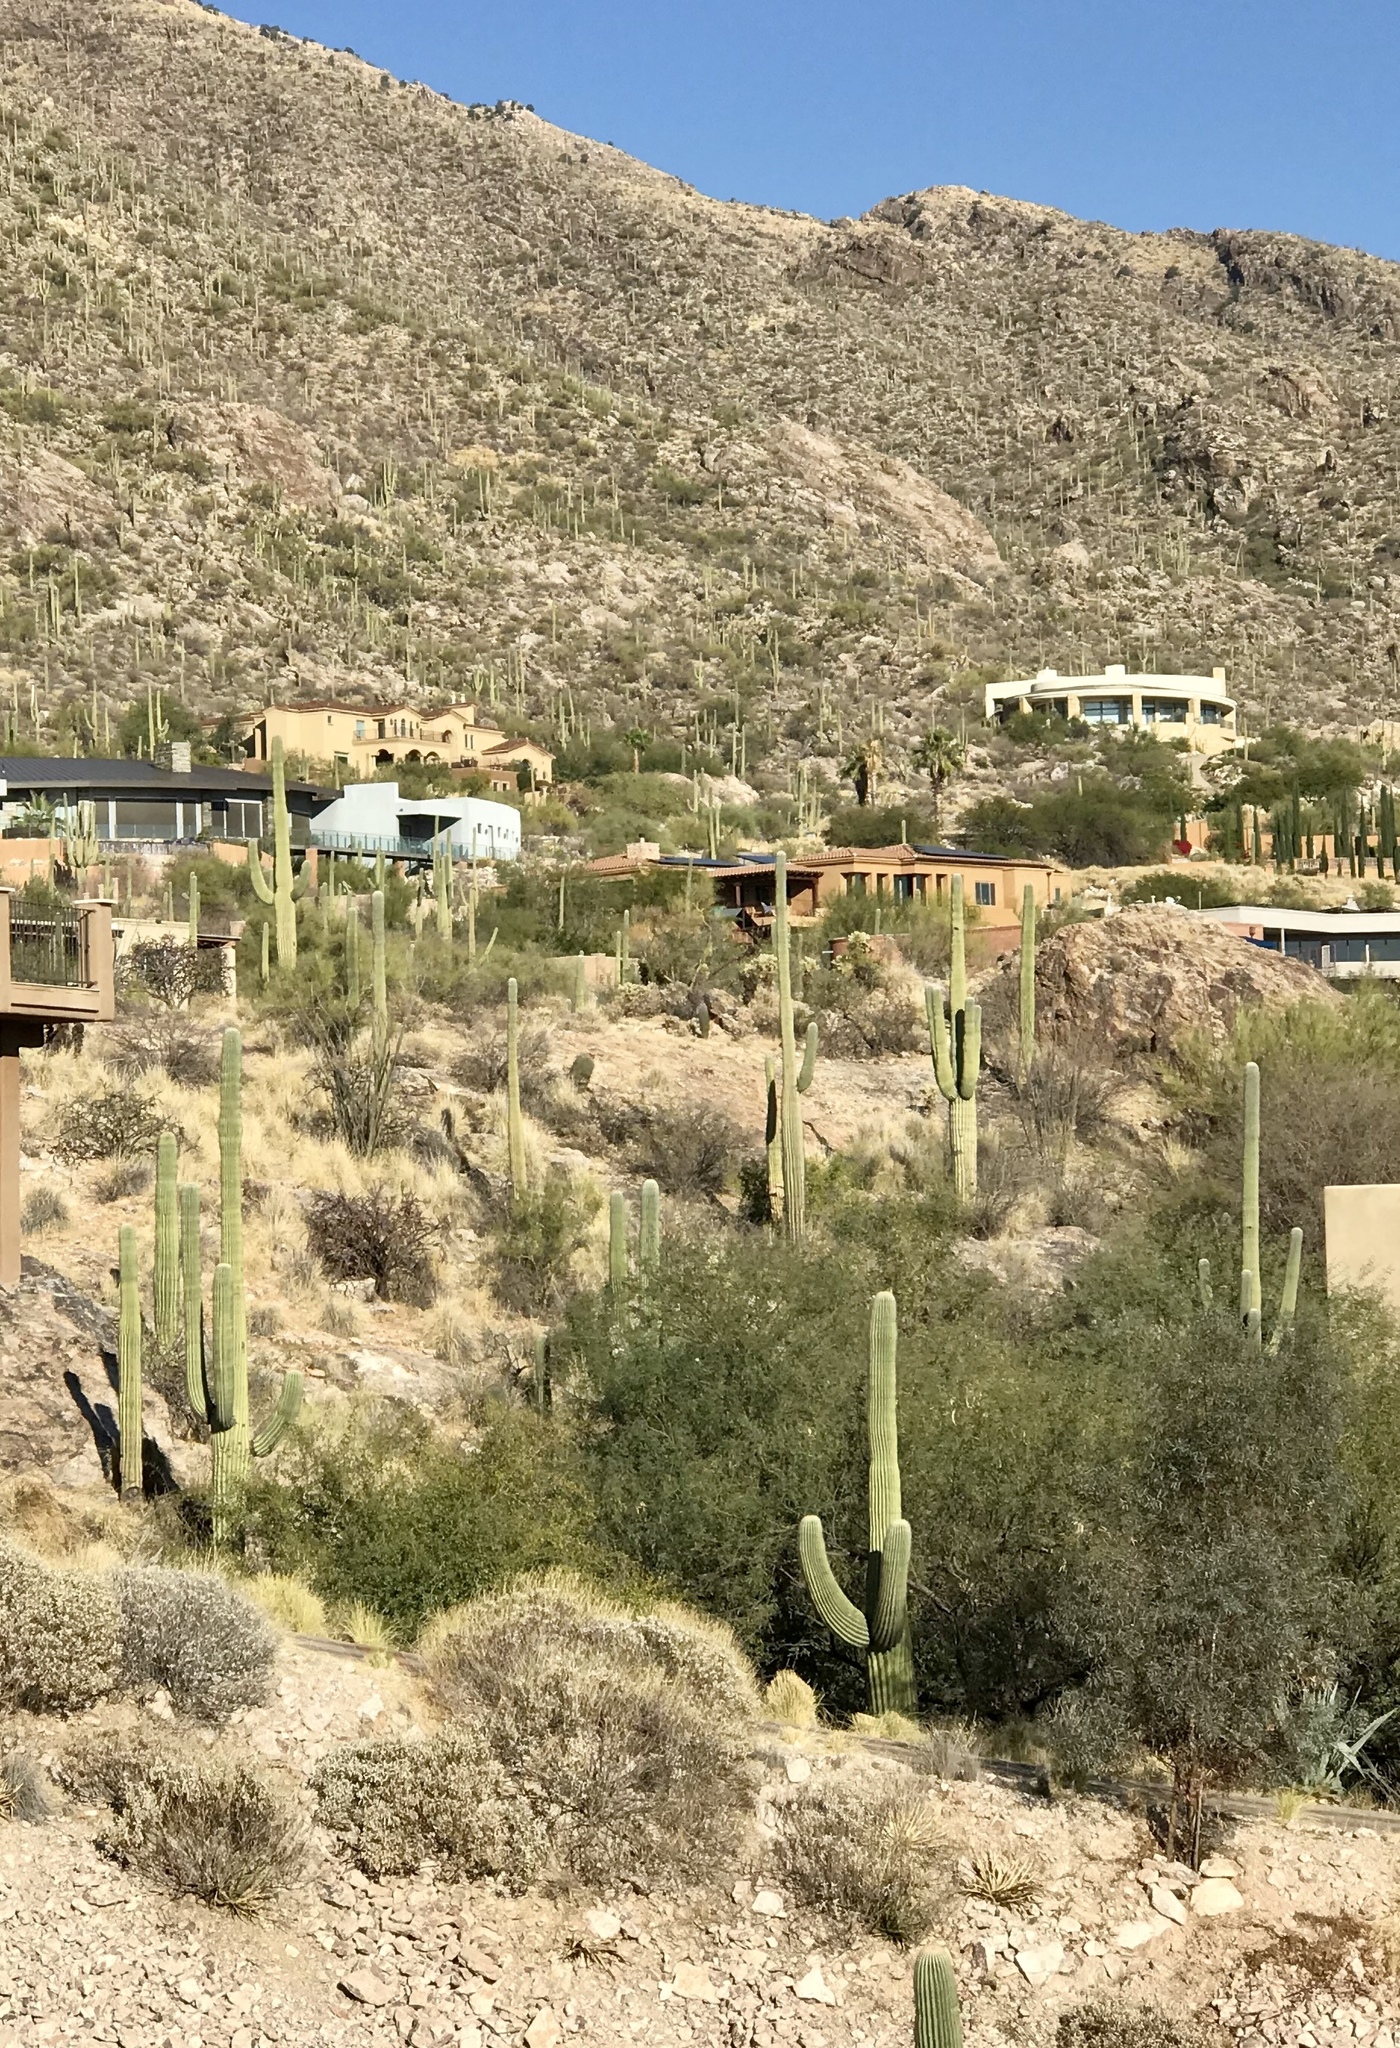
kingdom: Plantae
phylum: Tracheophyta
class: Magnoliopsida
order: Caryophyllales
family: Cactaceae
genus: Carnegiea
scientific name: Carnegiea gigantea
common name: Saguaro
